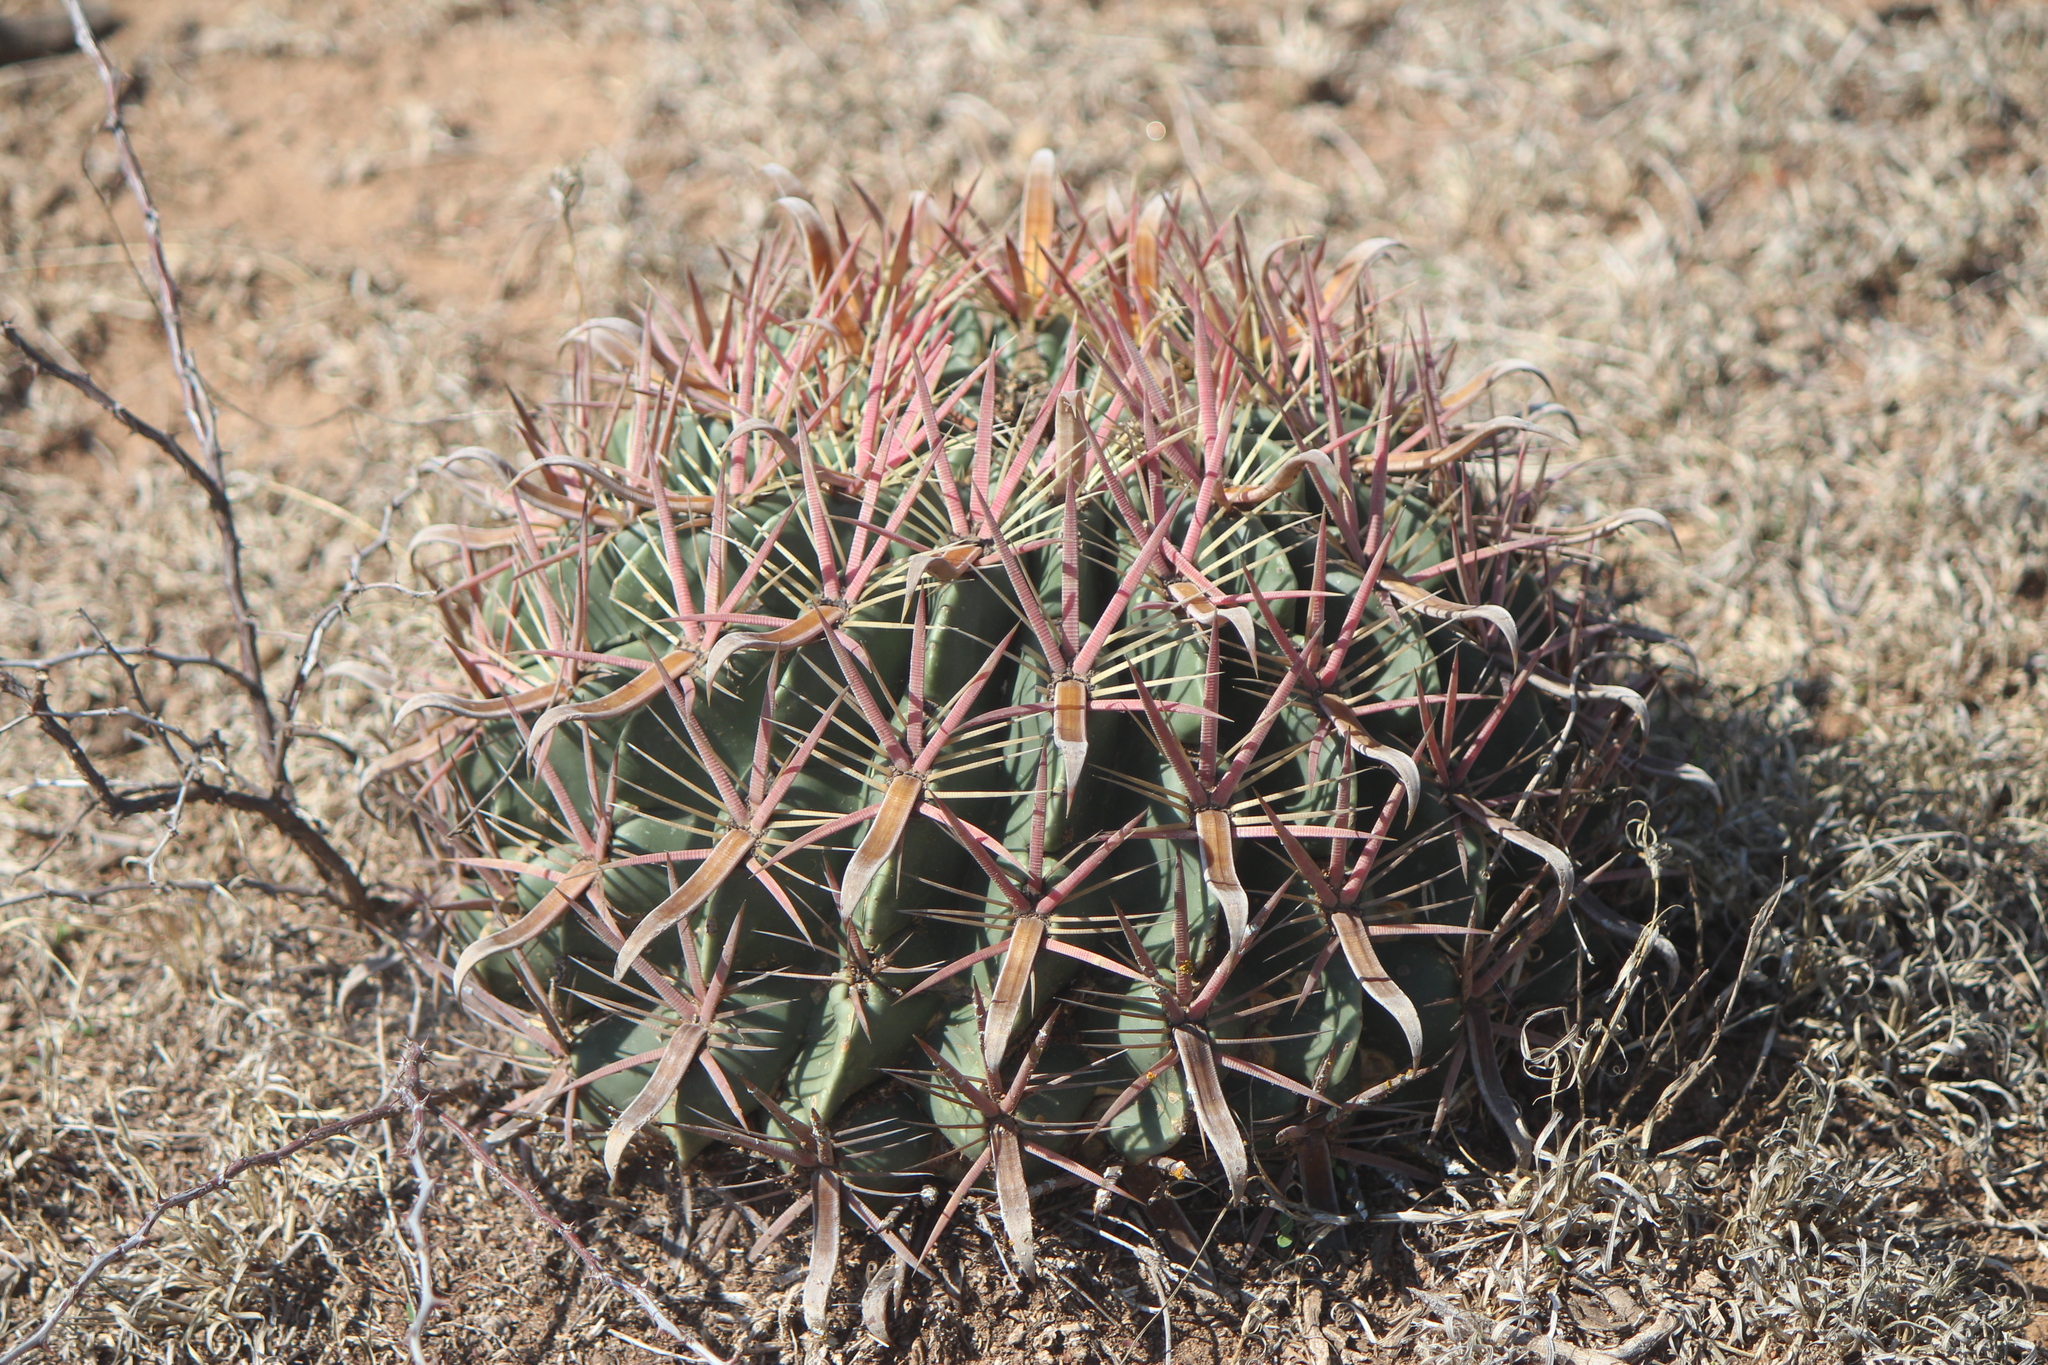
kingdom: Plantae
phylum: Tracheophyta
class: Magnoliopsida
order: Caryophyllales
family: Cactaceae
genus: Ferocactus
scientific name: Ferocactus latispinus
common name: Devil's-tongue cactus
